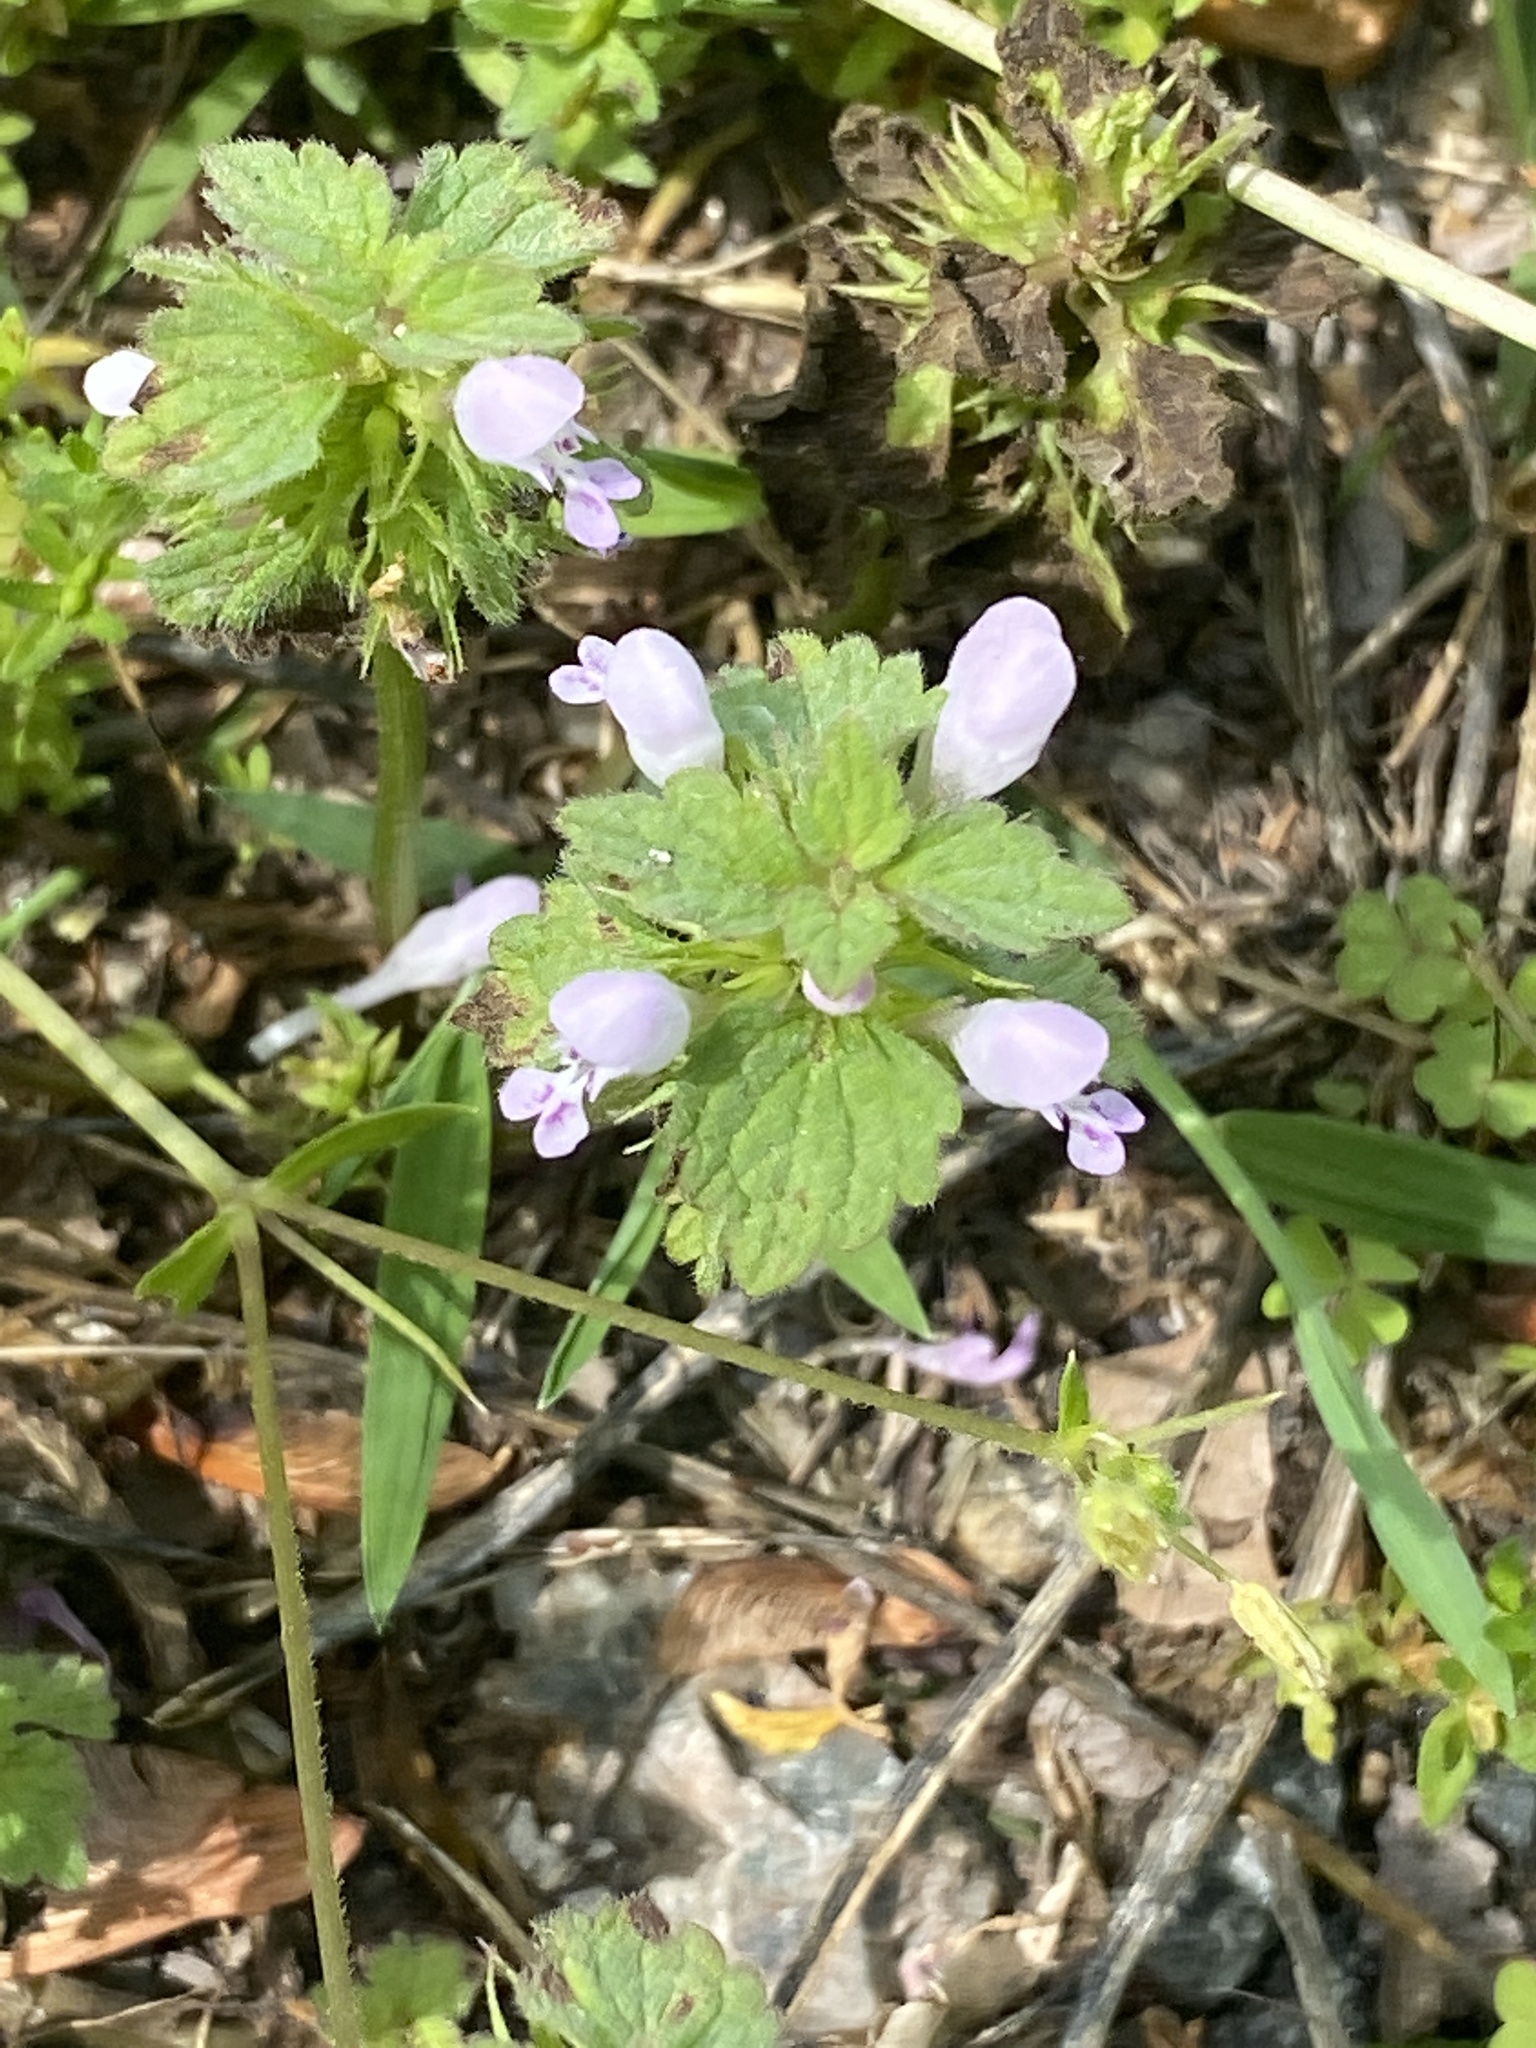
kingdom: Plantae
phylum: Tracheophyta
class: Magnoliopsida
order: Lamiales
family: Lamiaceae
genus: Lamium
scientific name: Lamium purpureum
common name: Red dead-nettle
